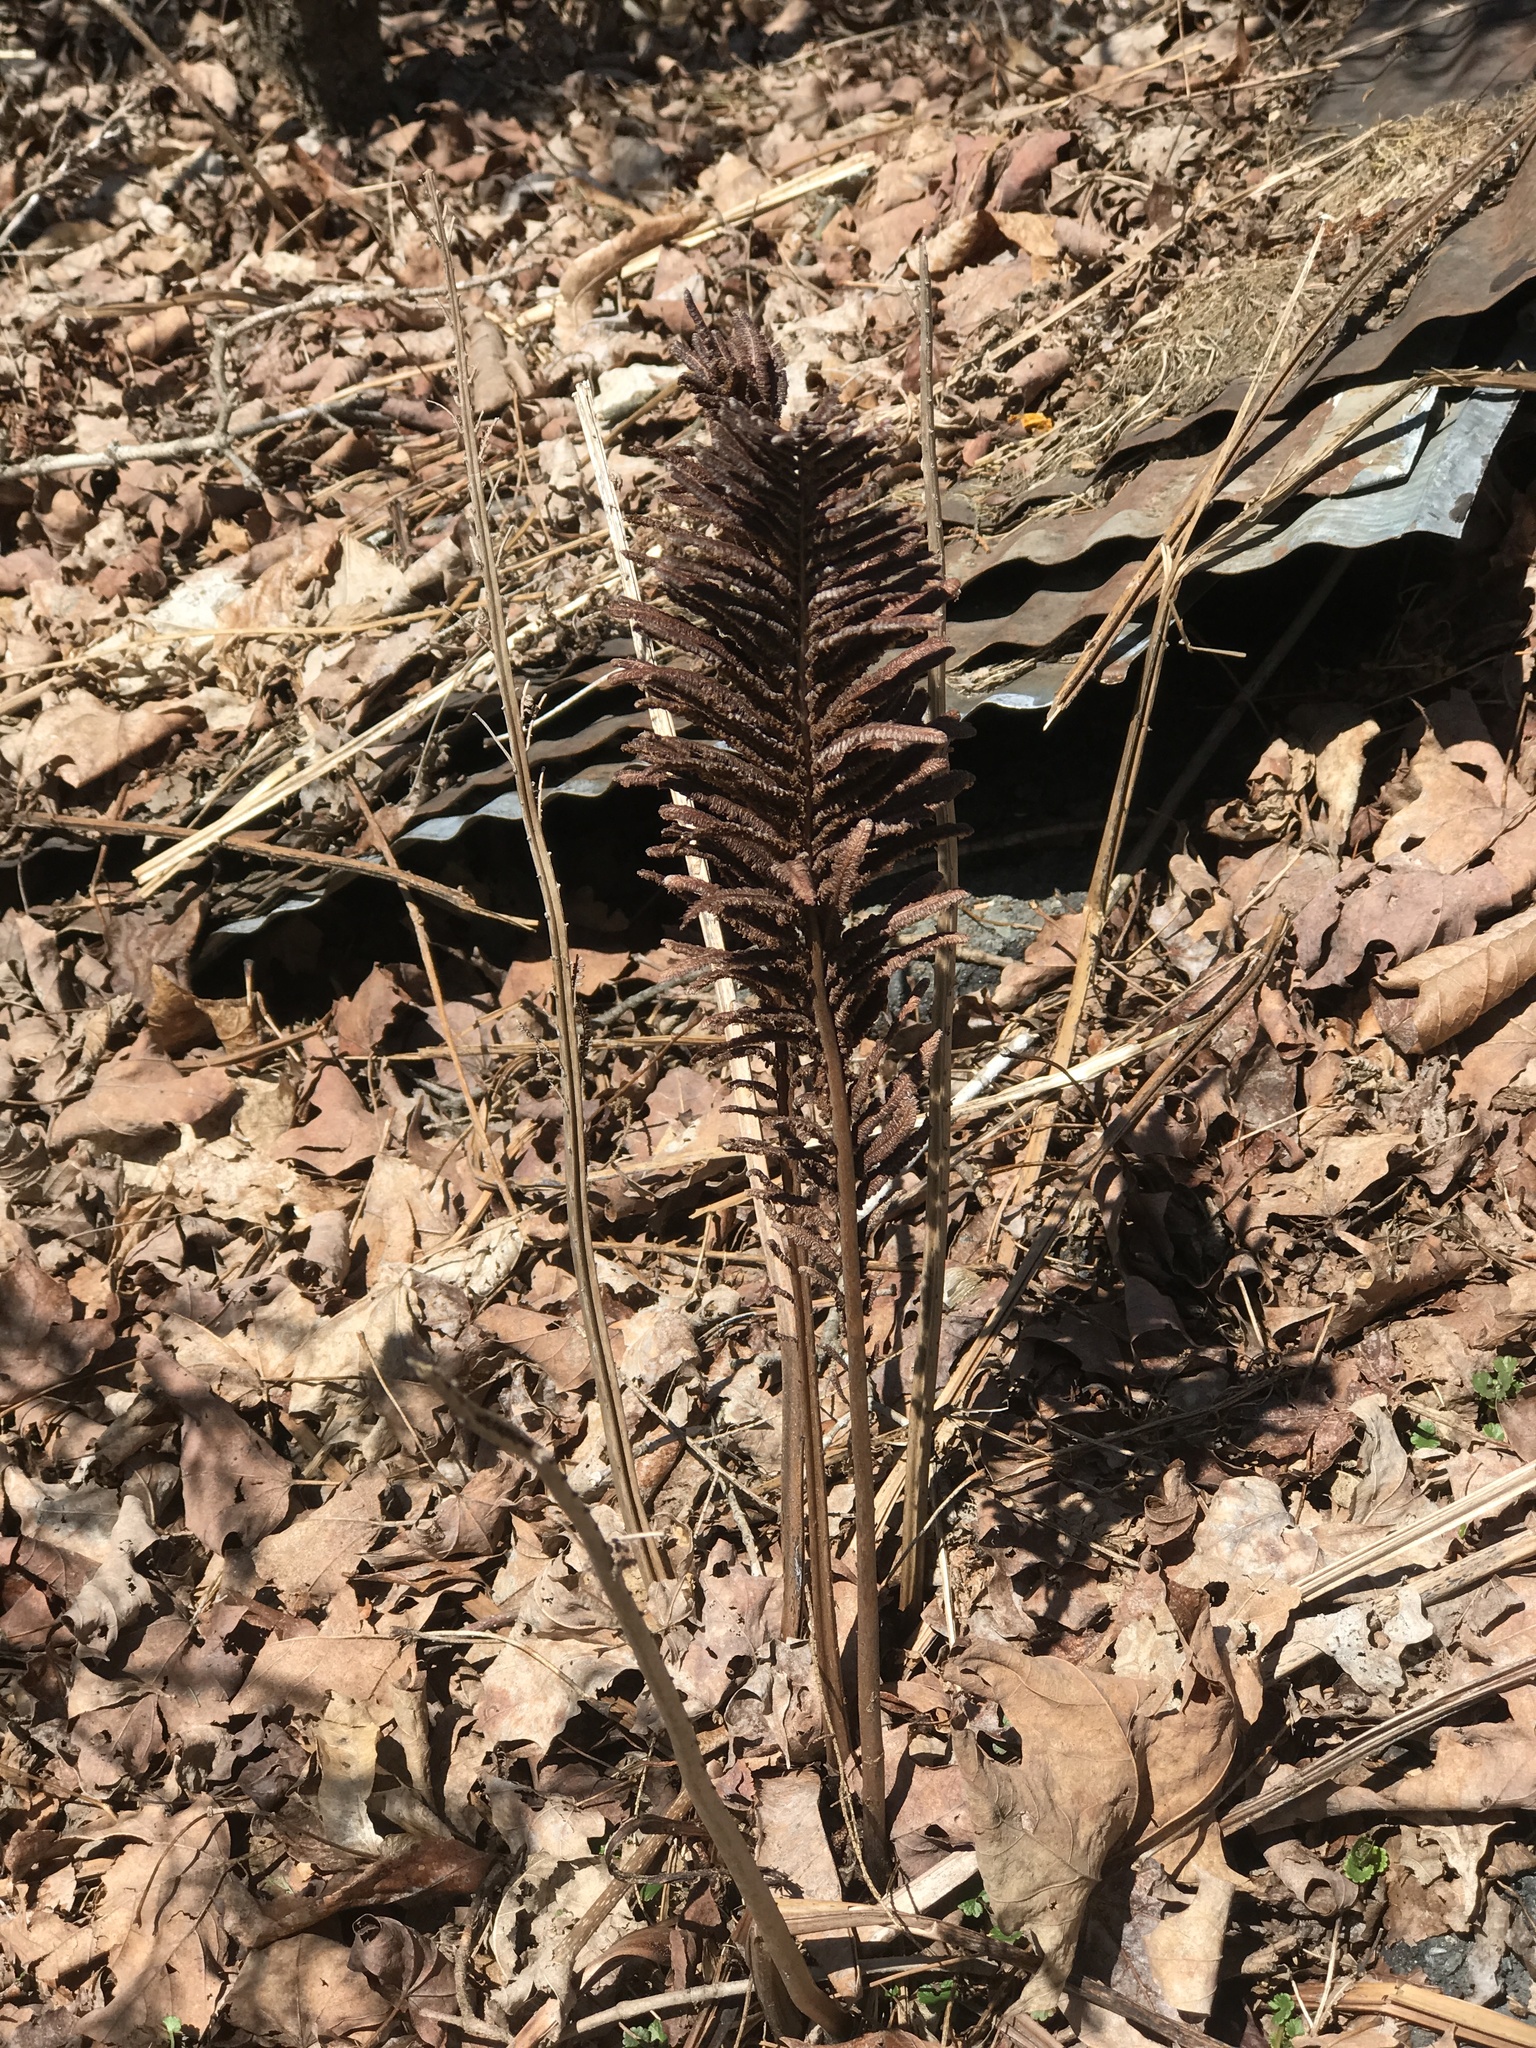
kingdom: Plantae
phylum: Tracheophyta
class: Polypodiopsida
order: Polypodiales
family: Onocleaceae
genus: Matteuccia
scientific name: Matteuccia struthiopteris
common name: Ostrich fern
